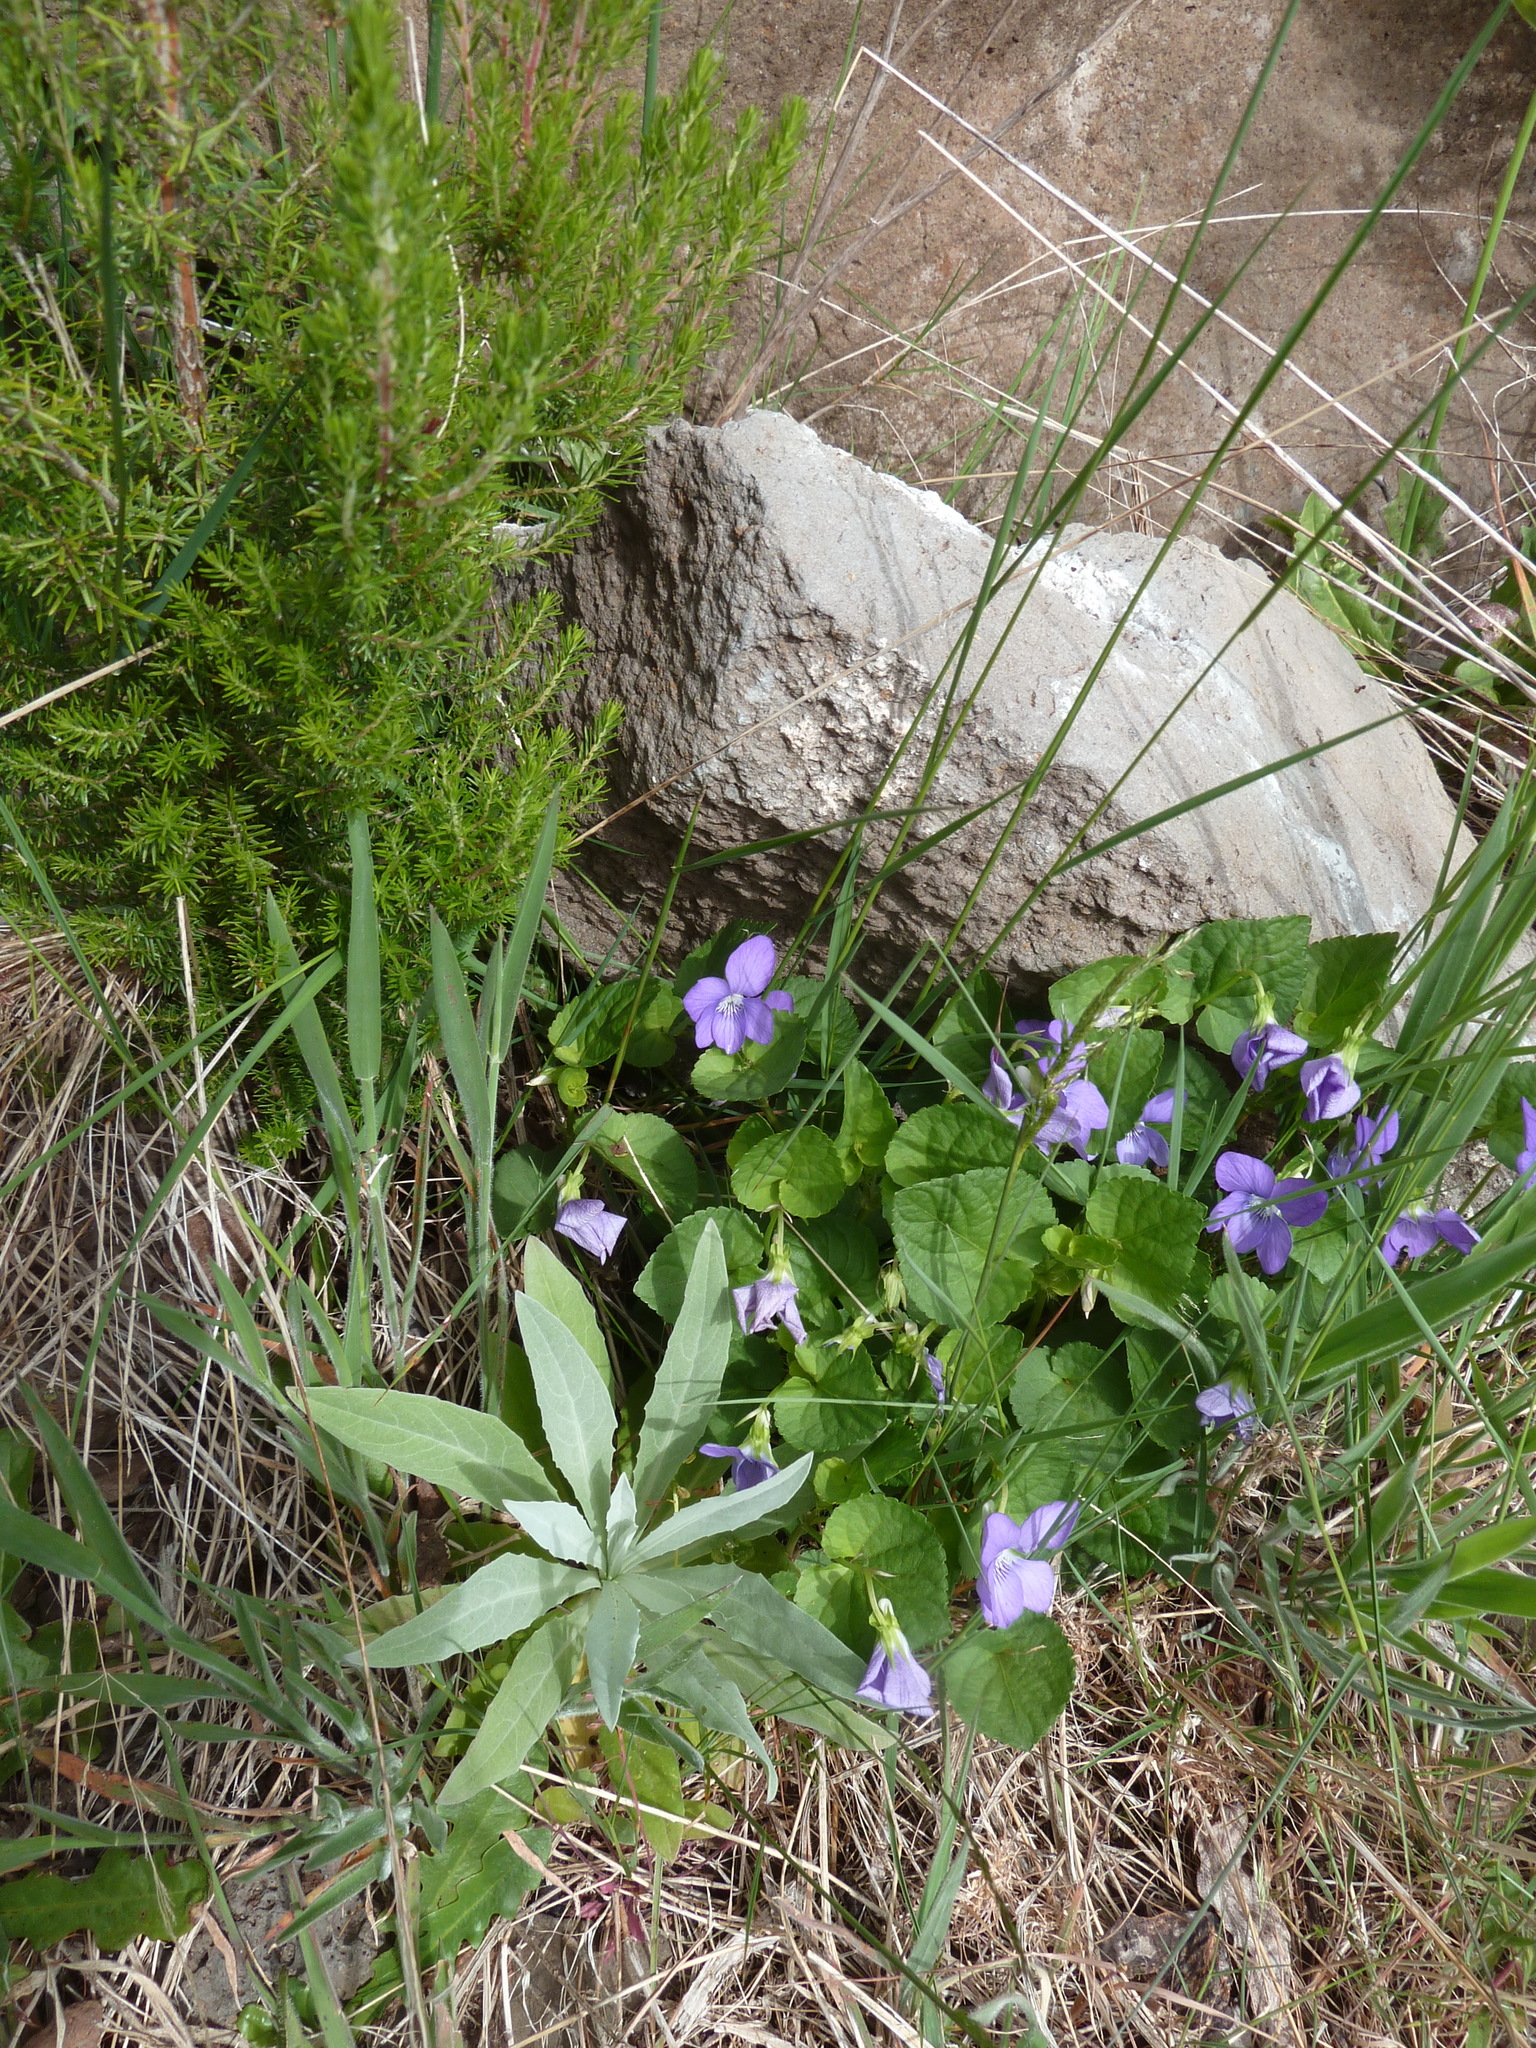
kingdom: Plantae
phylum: Tracheophyta
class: Magnoliopsida
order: Malpighiales
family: Violaceae
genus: Viola
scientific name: Viola riviniana
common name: Common dog-violet
